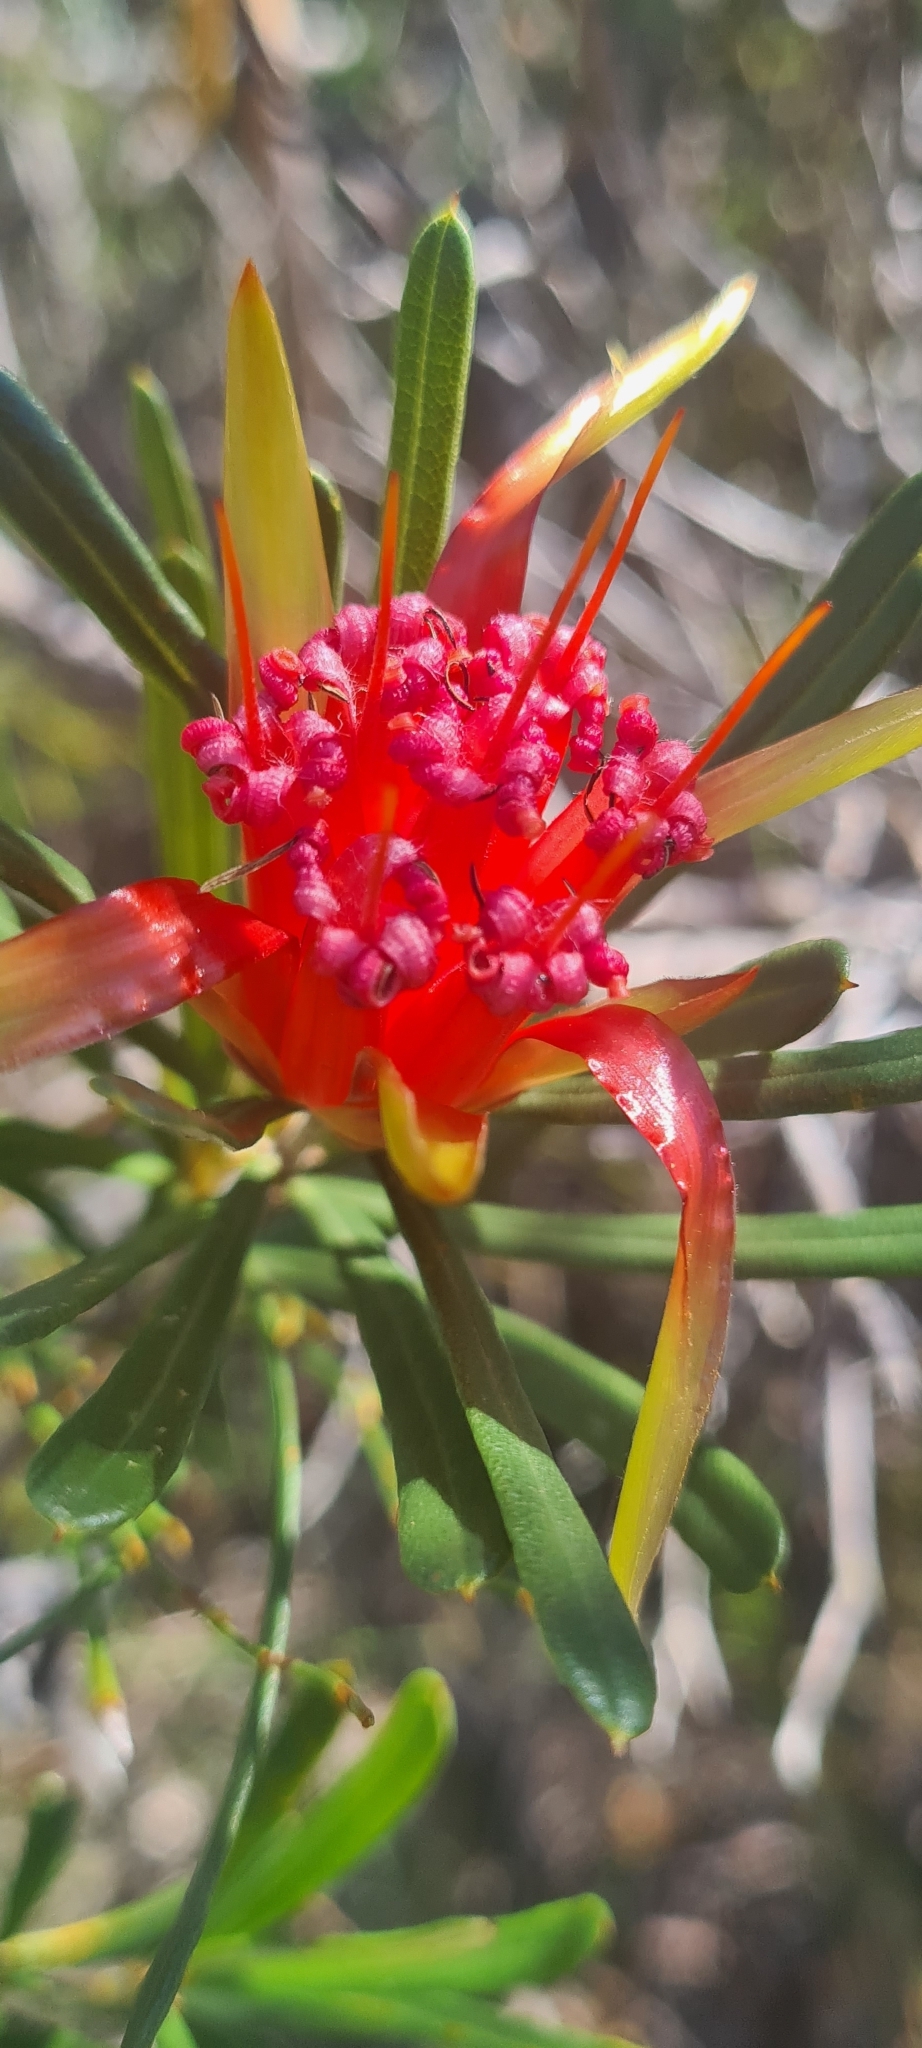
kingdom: Plantae
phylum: Tracheophyta
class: Magnoliopsida
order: Proteales
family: Proteaceae
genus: Lambertia
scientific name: Lambertia formosa
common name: Mountain-devil
